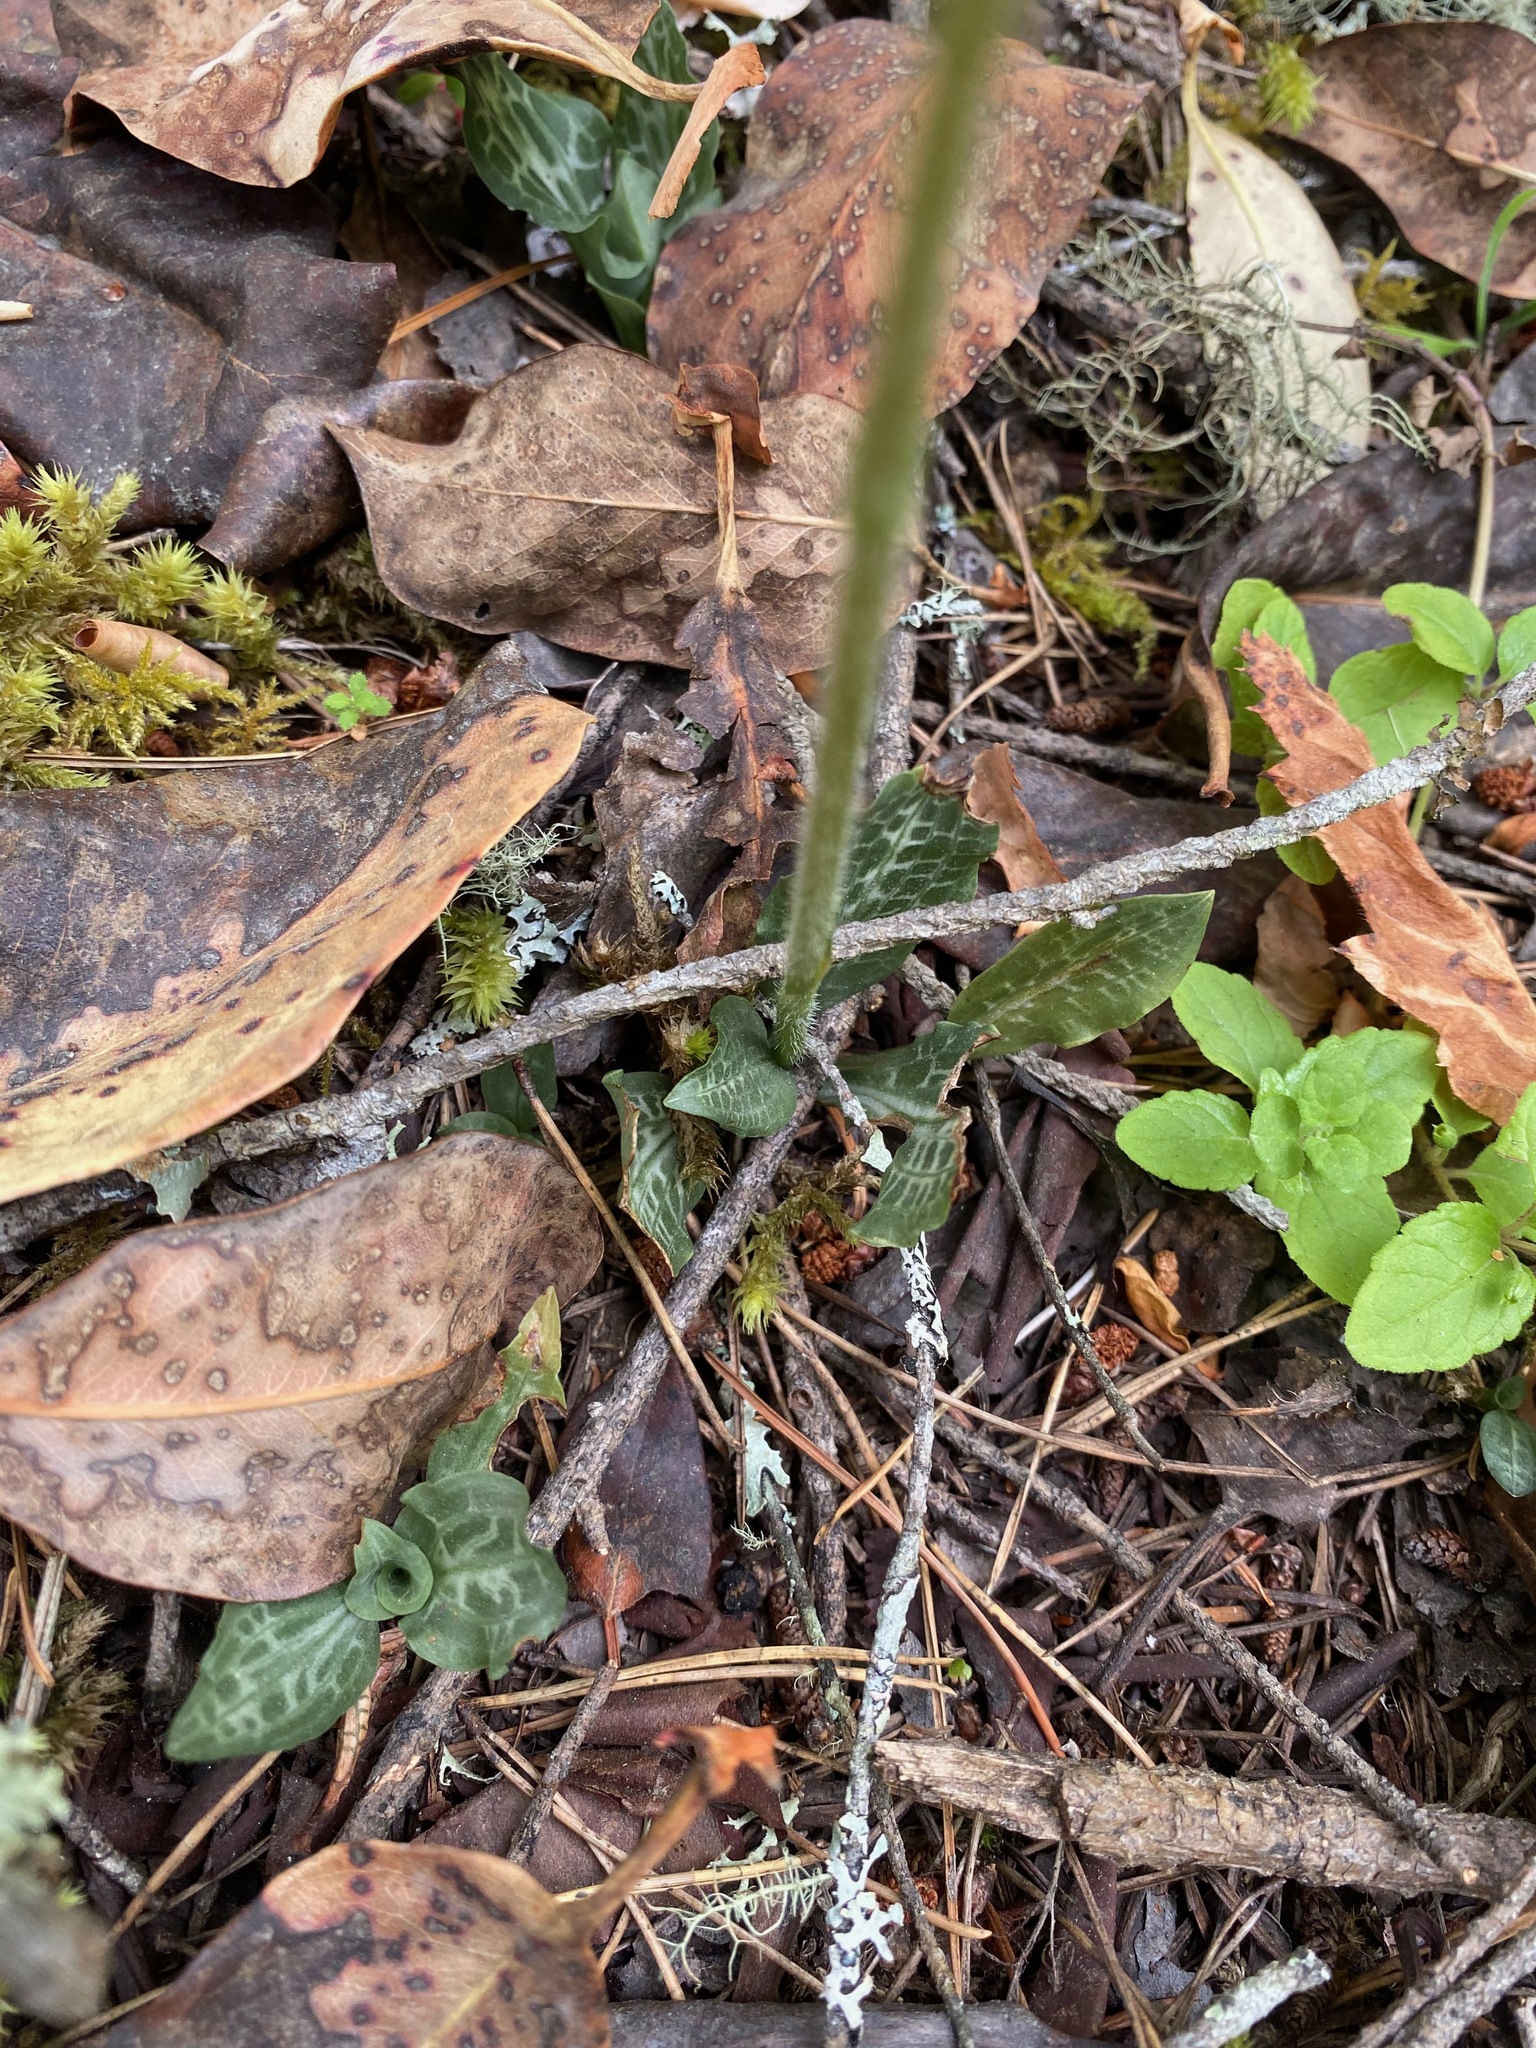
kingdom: Plantae
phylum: Tracheophyta
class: Liliopsida
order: Asparagales
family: Orchidaceae
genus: Goodyera
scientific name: Goodyera oblongifolia
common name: Giant rattlesnake-plantain
